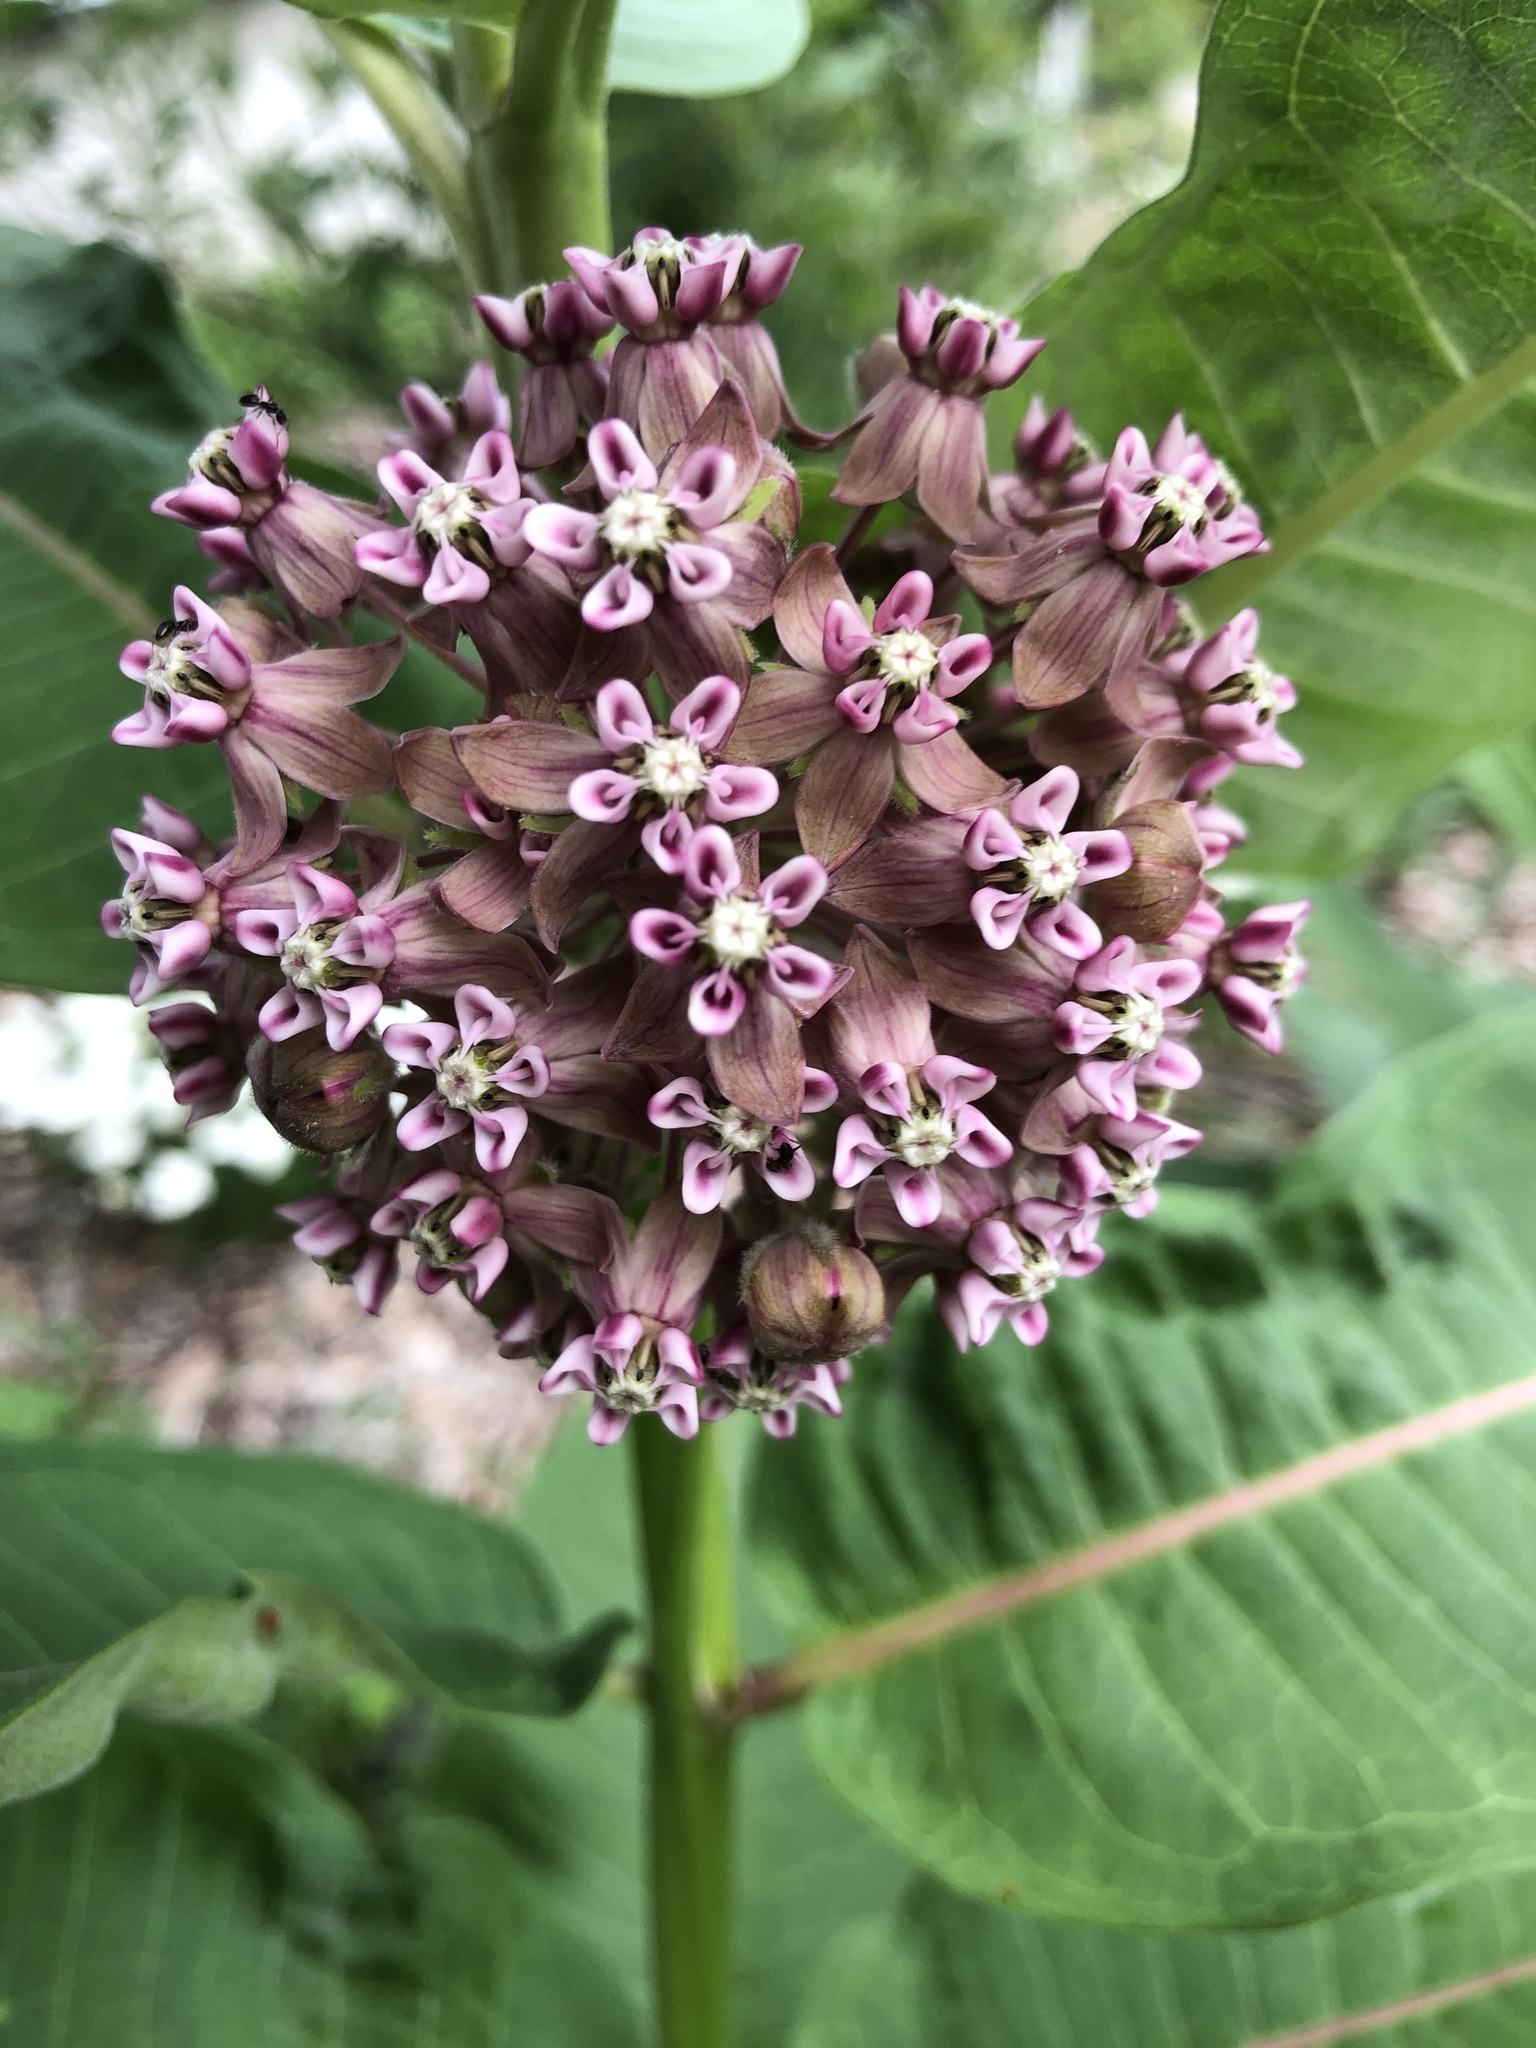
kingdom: Plantae
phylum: Tracheophyta
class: Magnoliopsida
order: Gentianales
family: Apocynaceae
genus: Asclepias
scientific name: Asclepias syriaca
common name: Common milkweed
